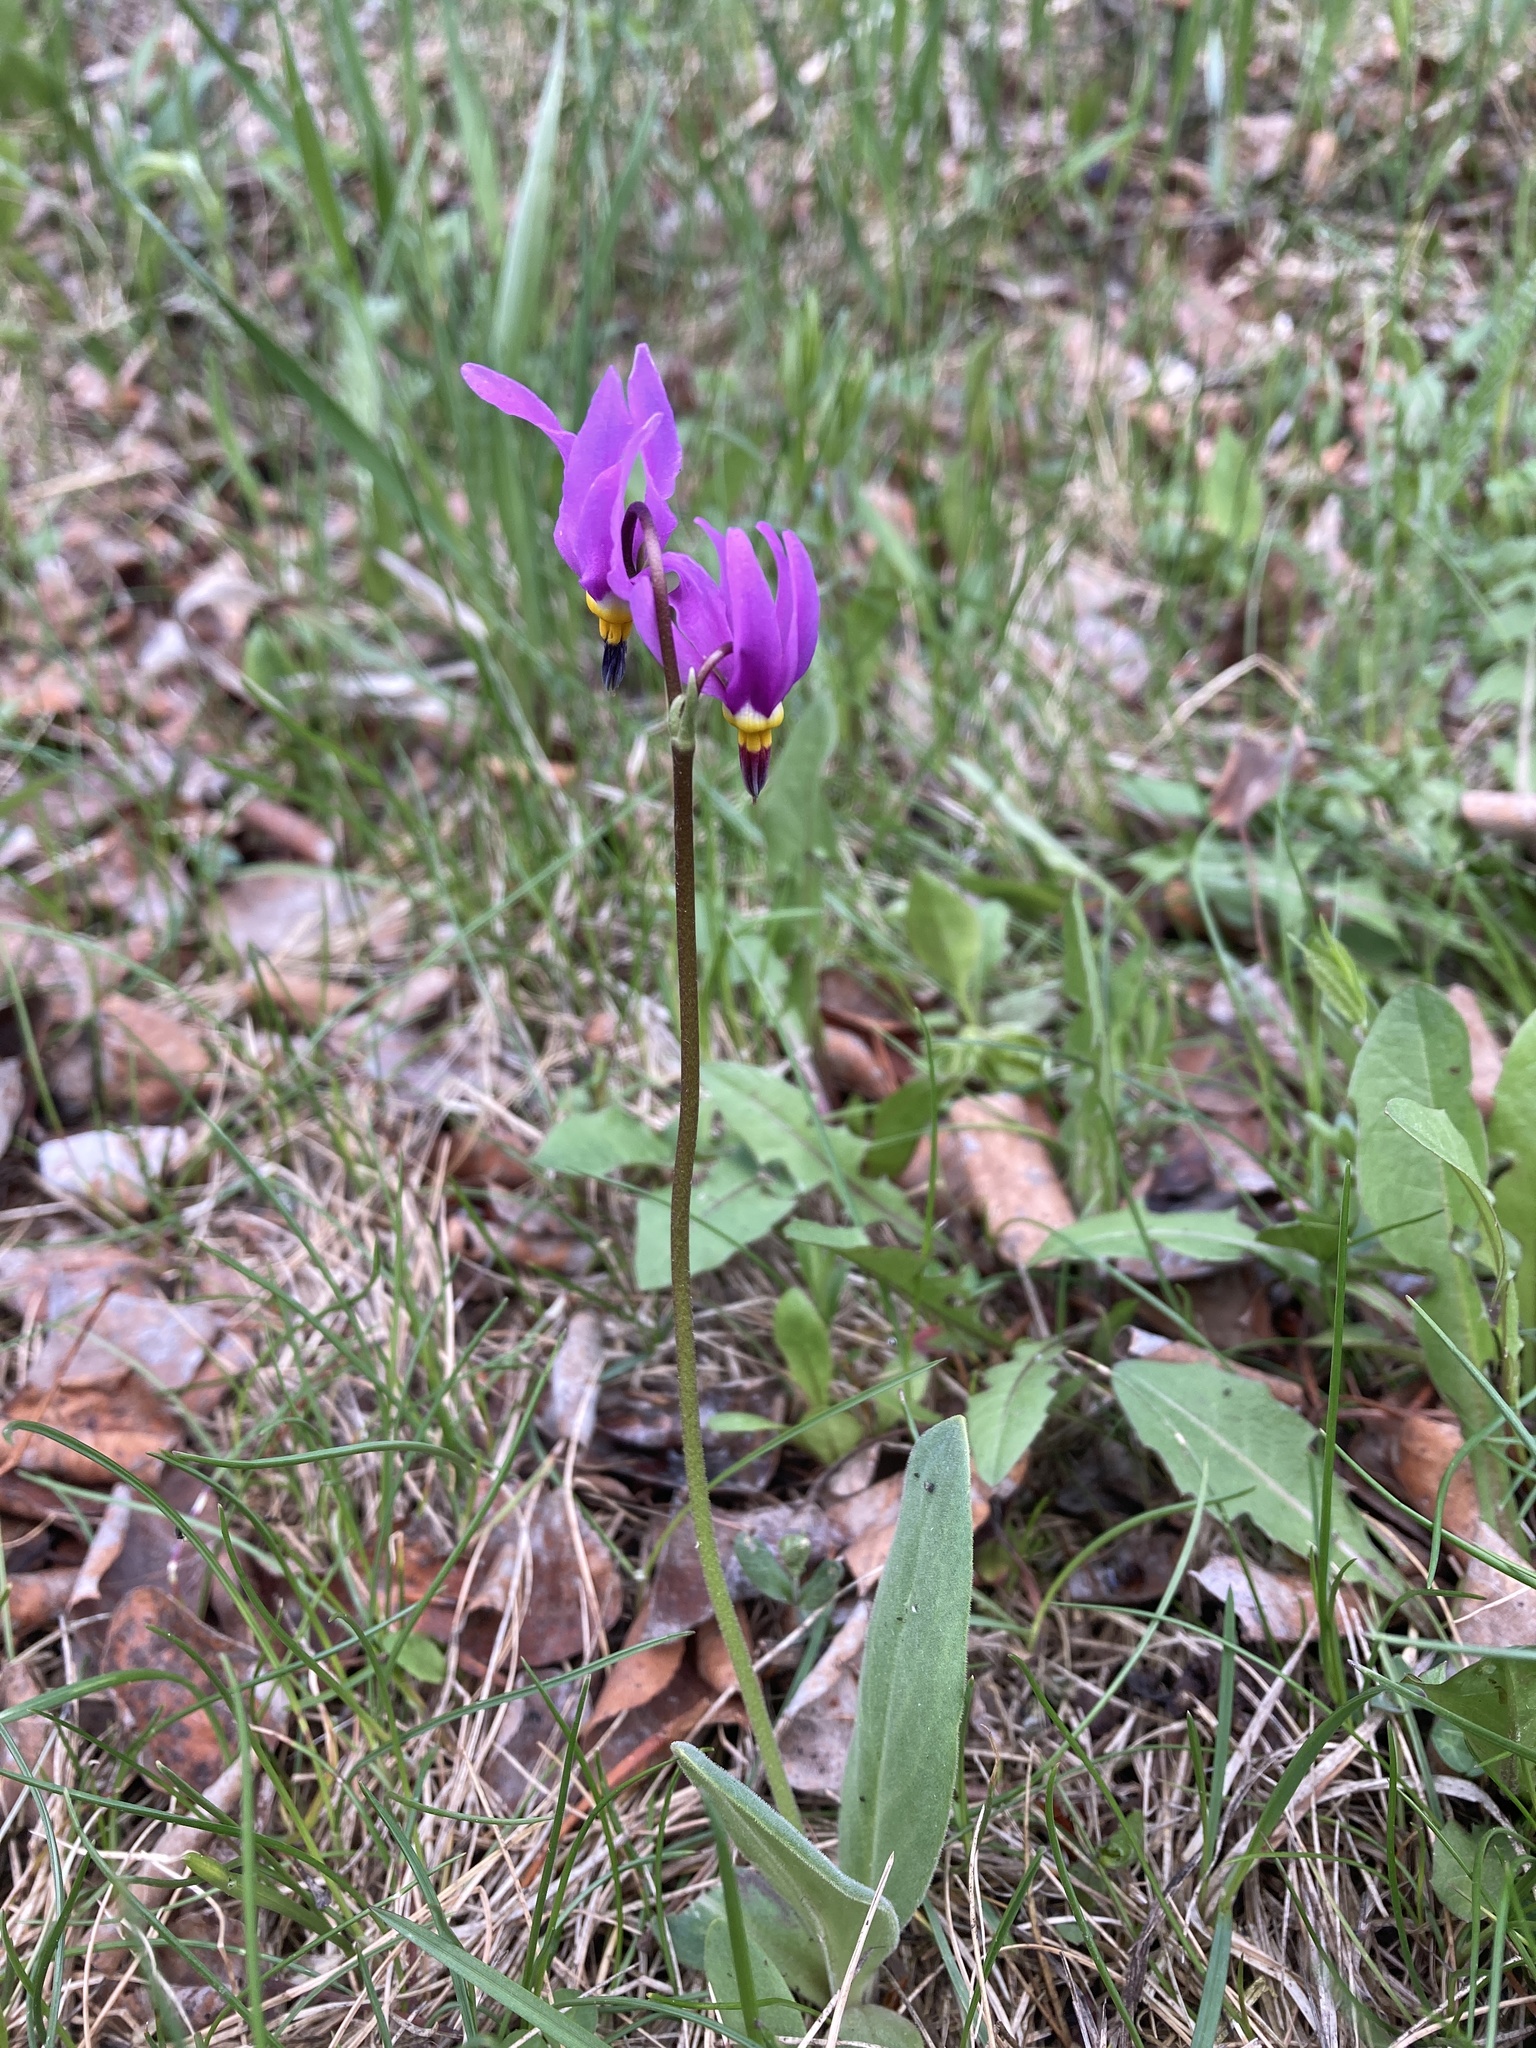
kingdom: Plantae
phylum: Tracheophyta
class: Magnoliopsida
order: Ericales
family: Primulaceae
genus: Dodecatheon
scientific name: Dodecatheon conjugens
